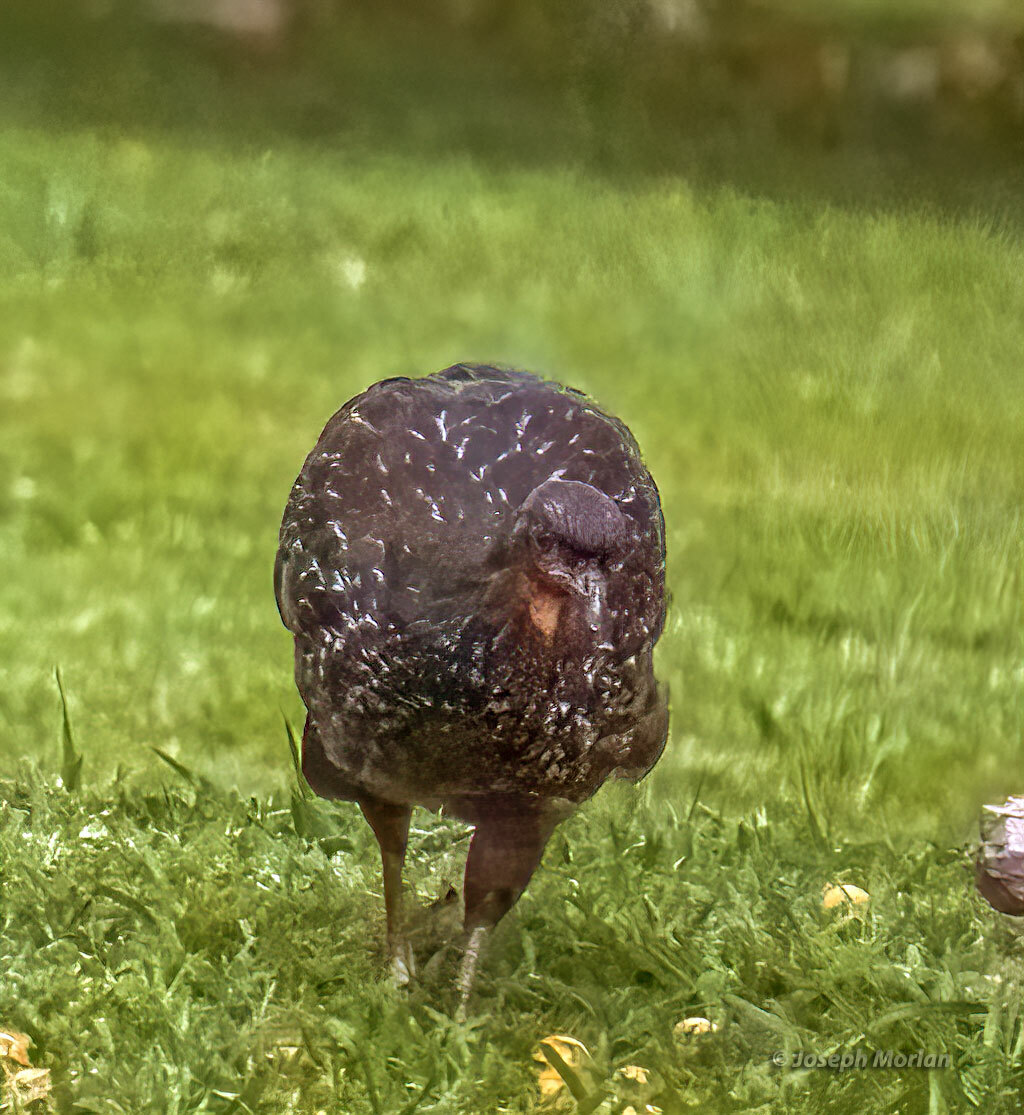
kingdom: Animalia
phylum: Chordata
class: Aves
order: Galliformes
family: Cracidae
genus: Penelope
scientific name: Penelope obscura
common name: Dusky-legged guan
